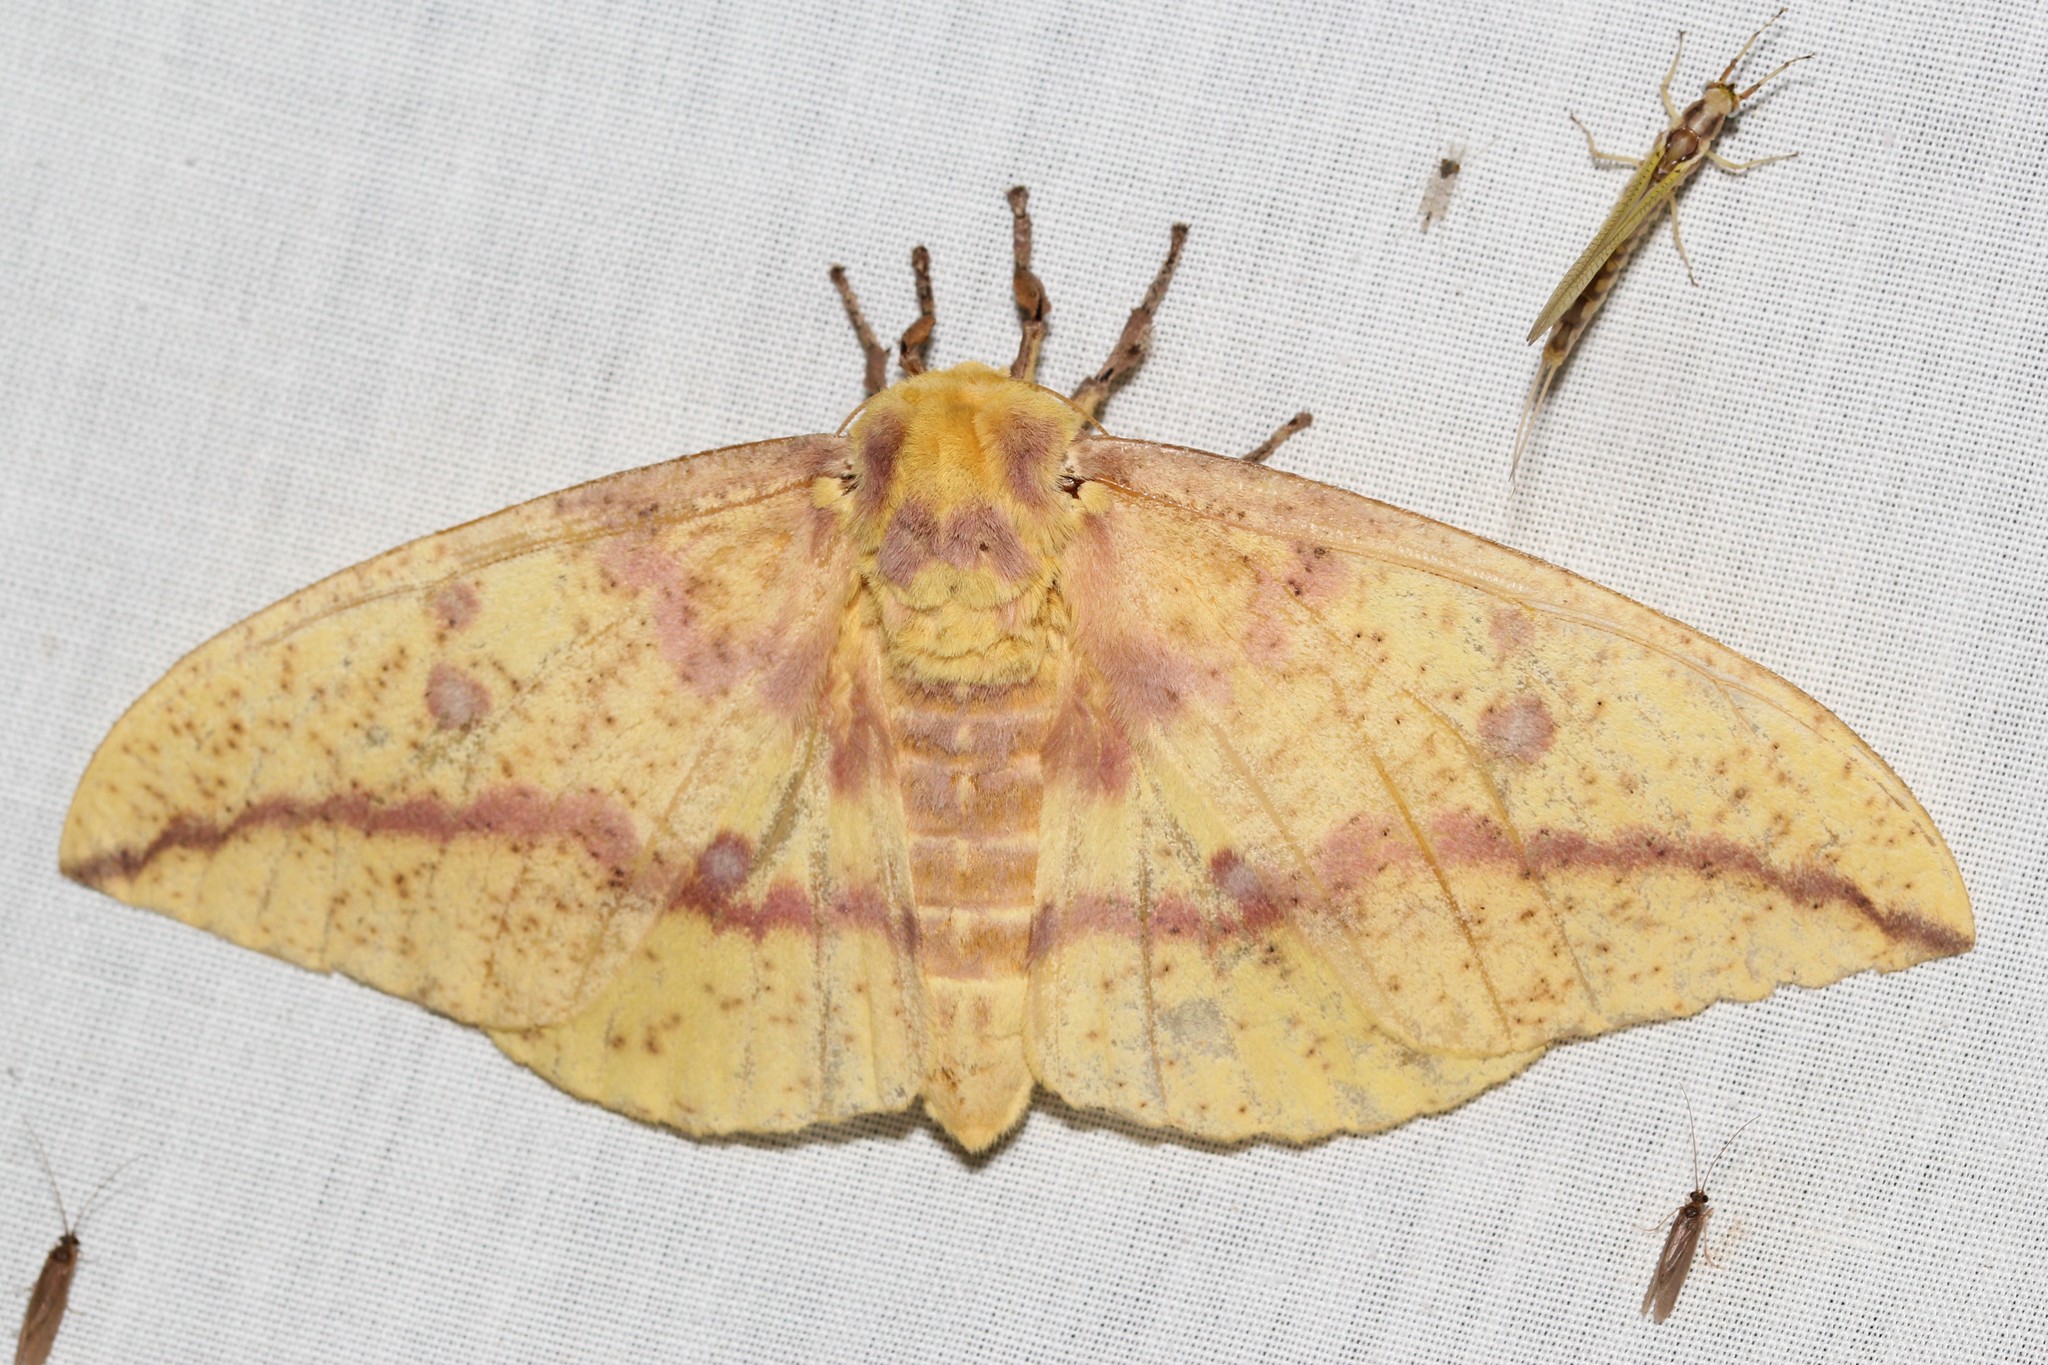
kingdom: Animalia
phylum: Arthropoda
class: Insecta
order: Lepidoptera
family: Saturniidae
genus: Eacles
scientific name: Eacles
